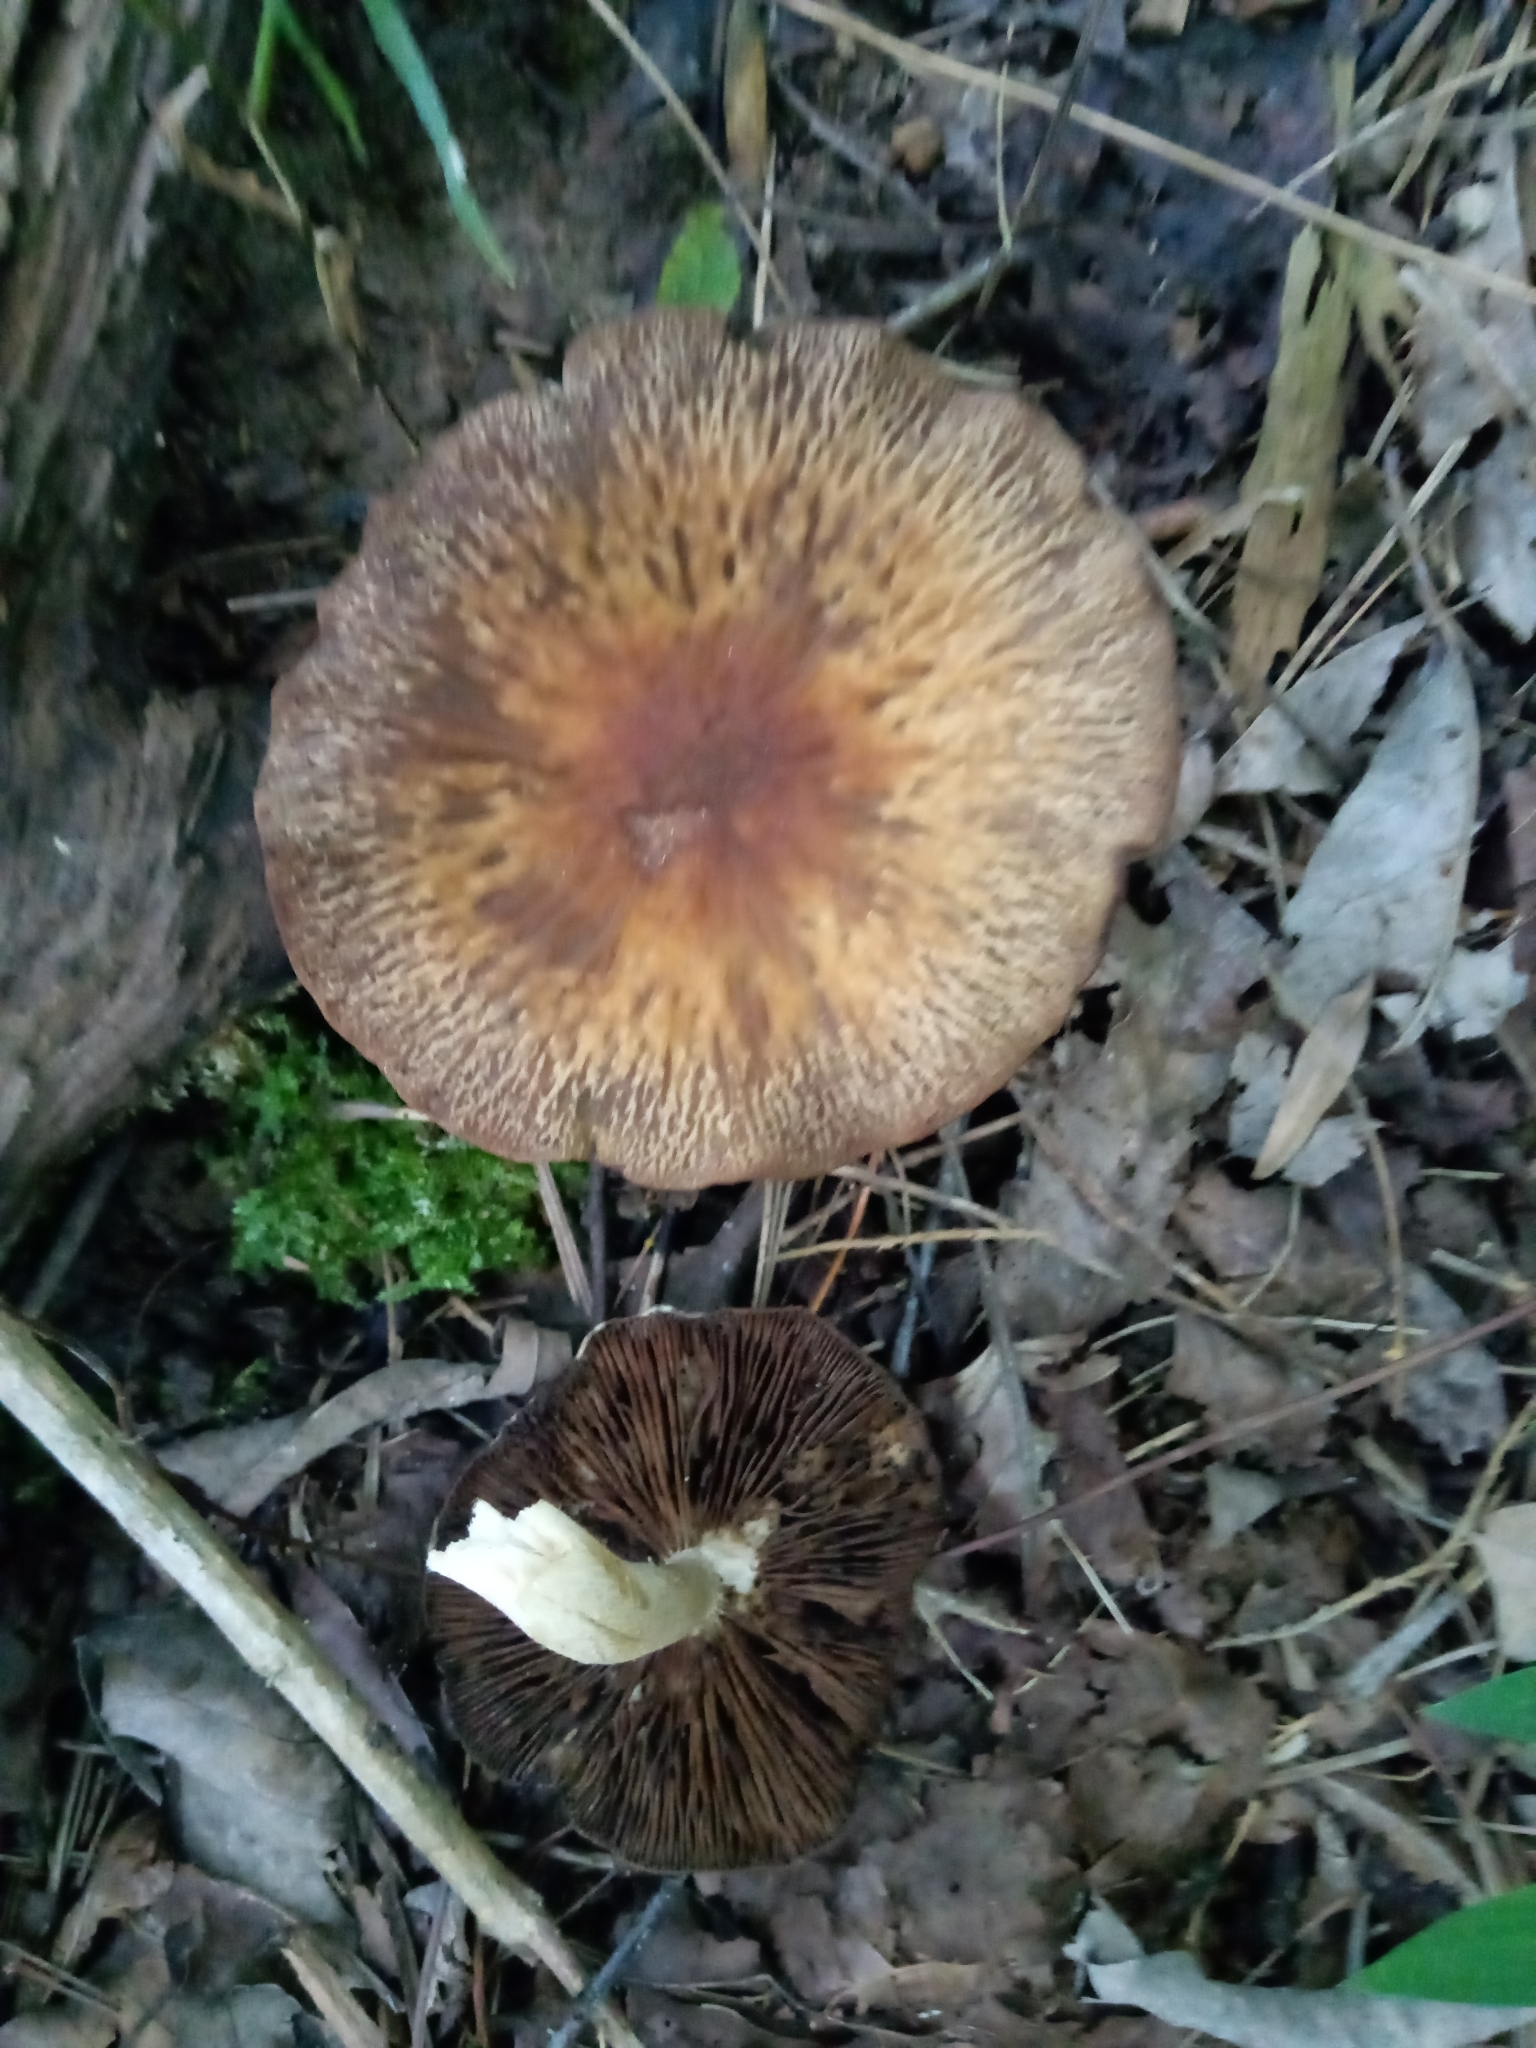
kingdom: Fungi
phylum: Basidiomycota
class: Agaricomycetes
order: Agaricales
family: Psathyrellaceae
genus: Typhrasa
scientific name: Typhrasa gossypina
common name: Wrinkled psathyrella
